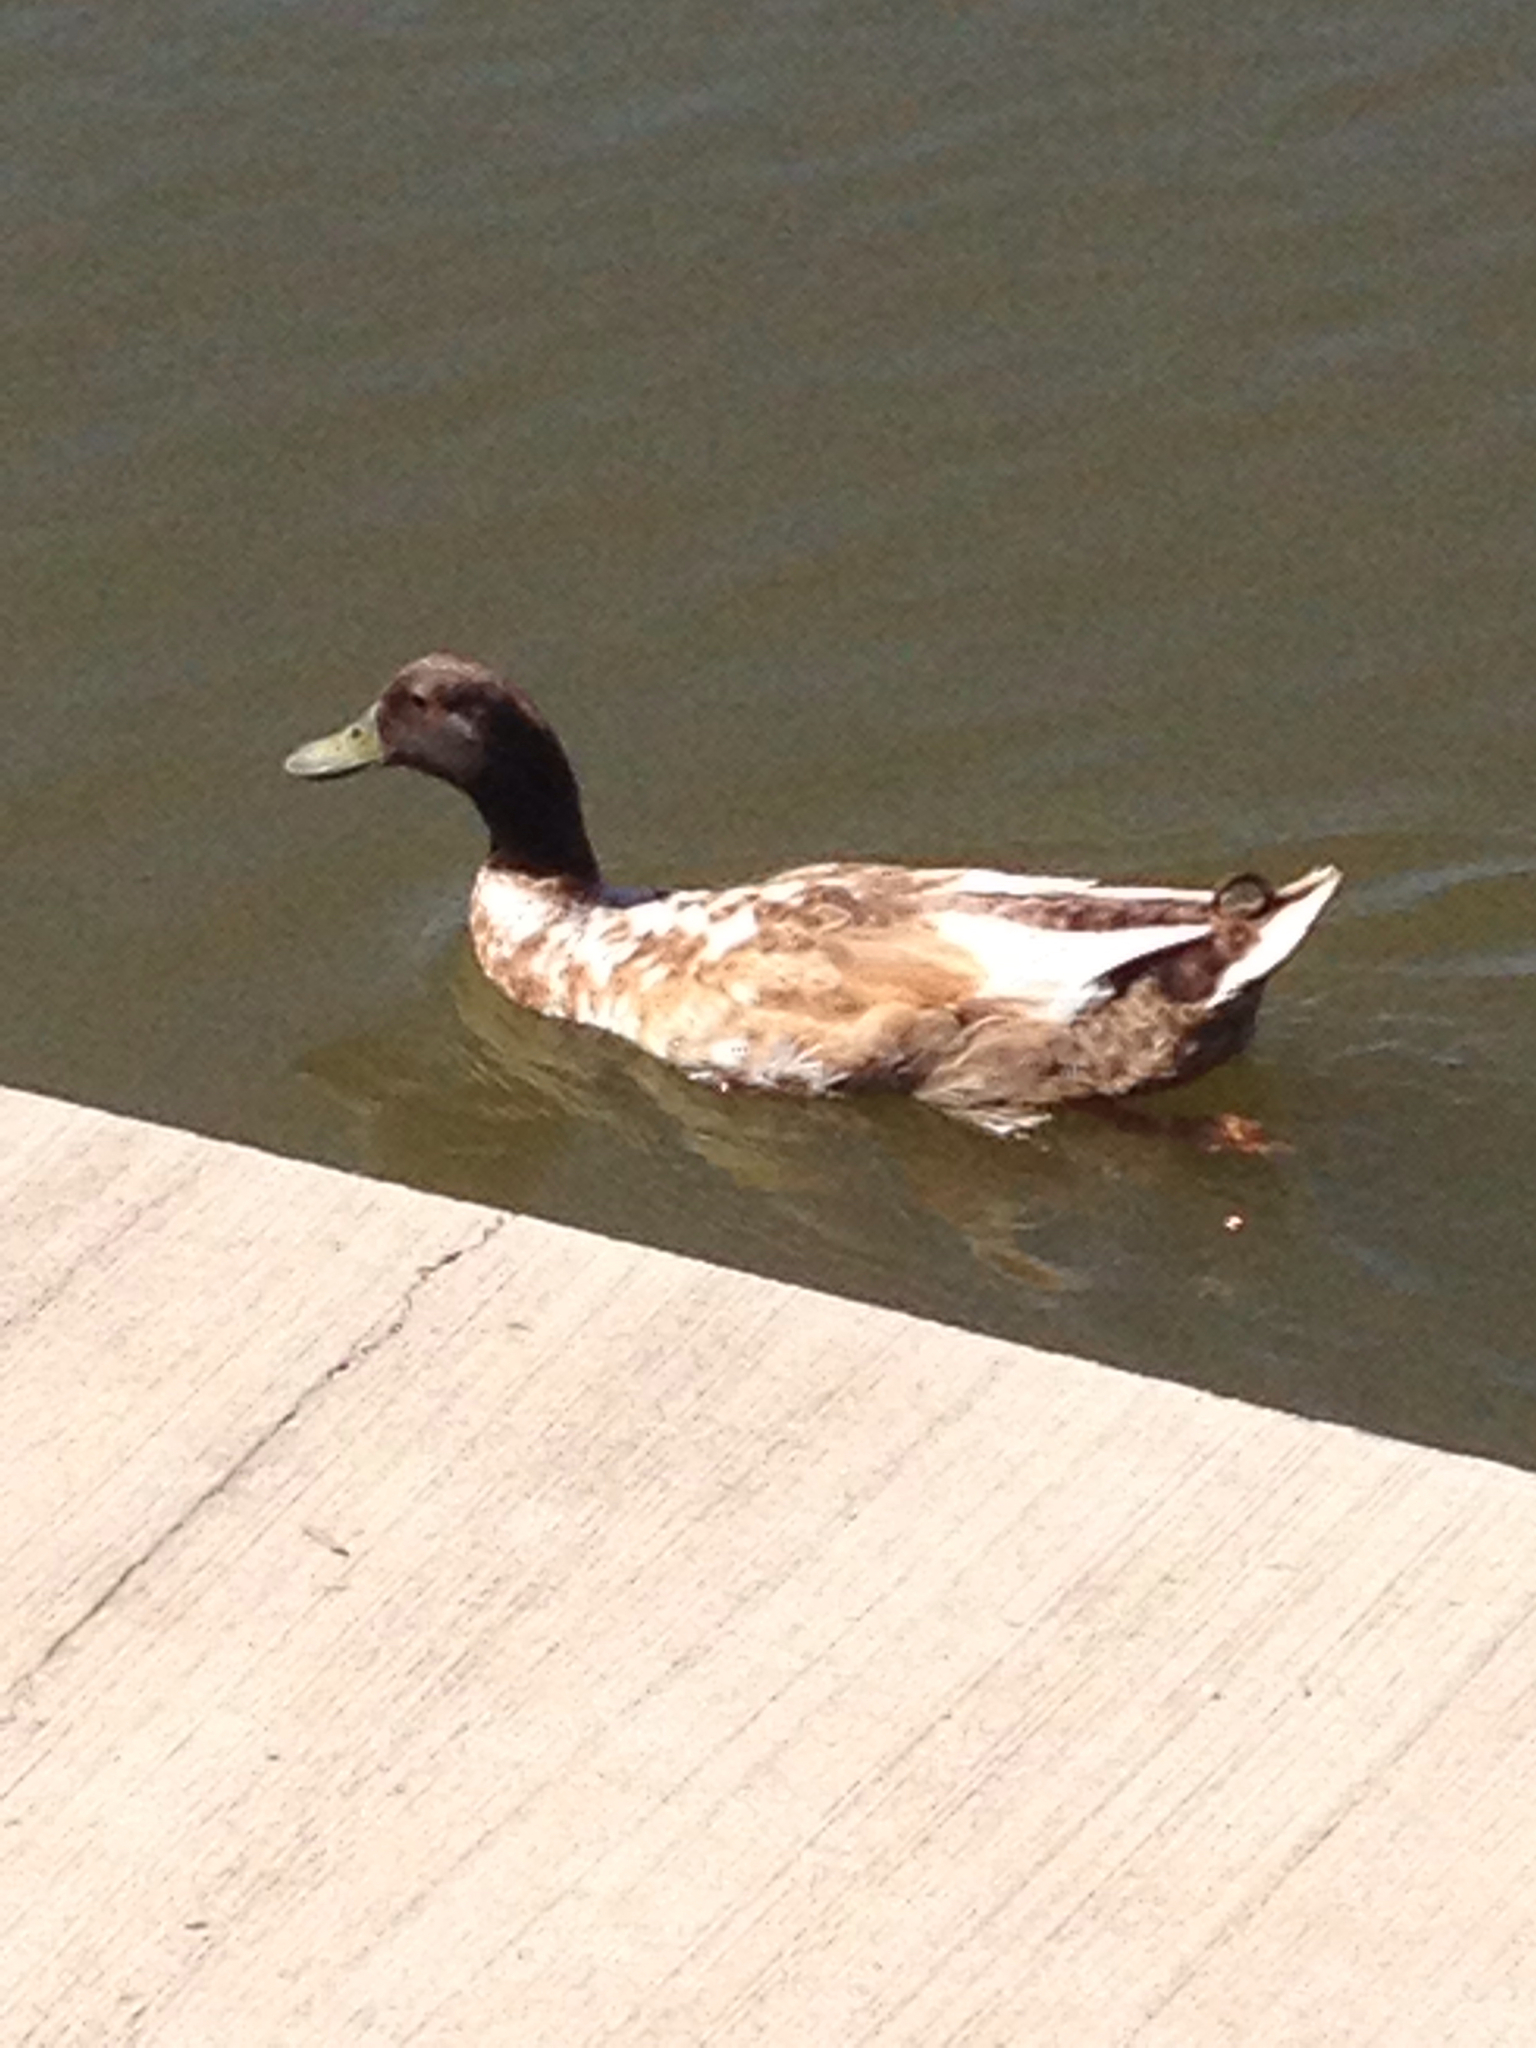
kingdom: Animalia
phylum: Chordata
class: Aves
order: Anseriformes
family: Anatidae
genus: Anas
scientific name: Anas platyrhynchos
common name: Mallard
